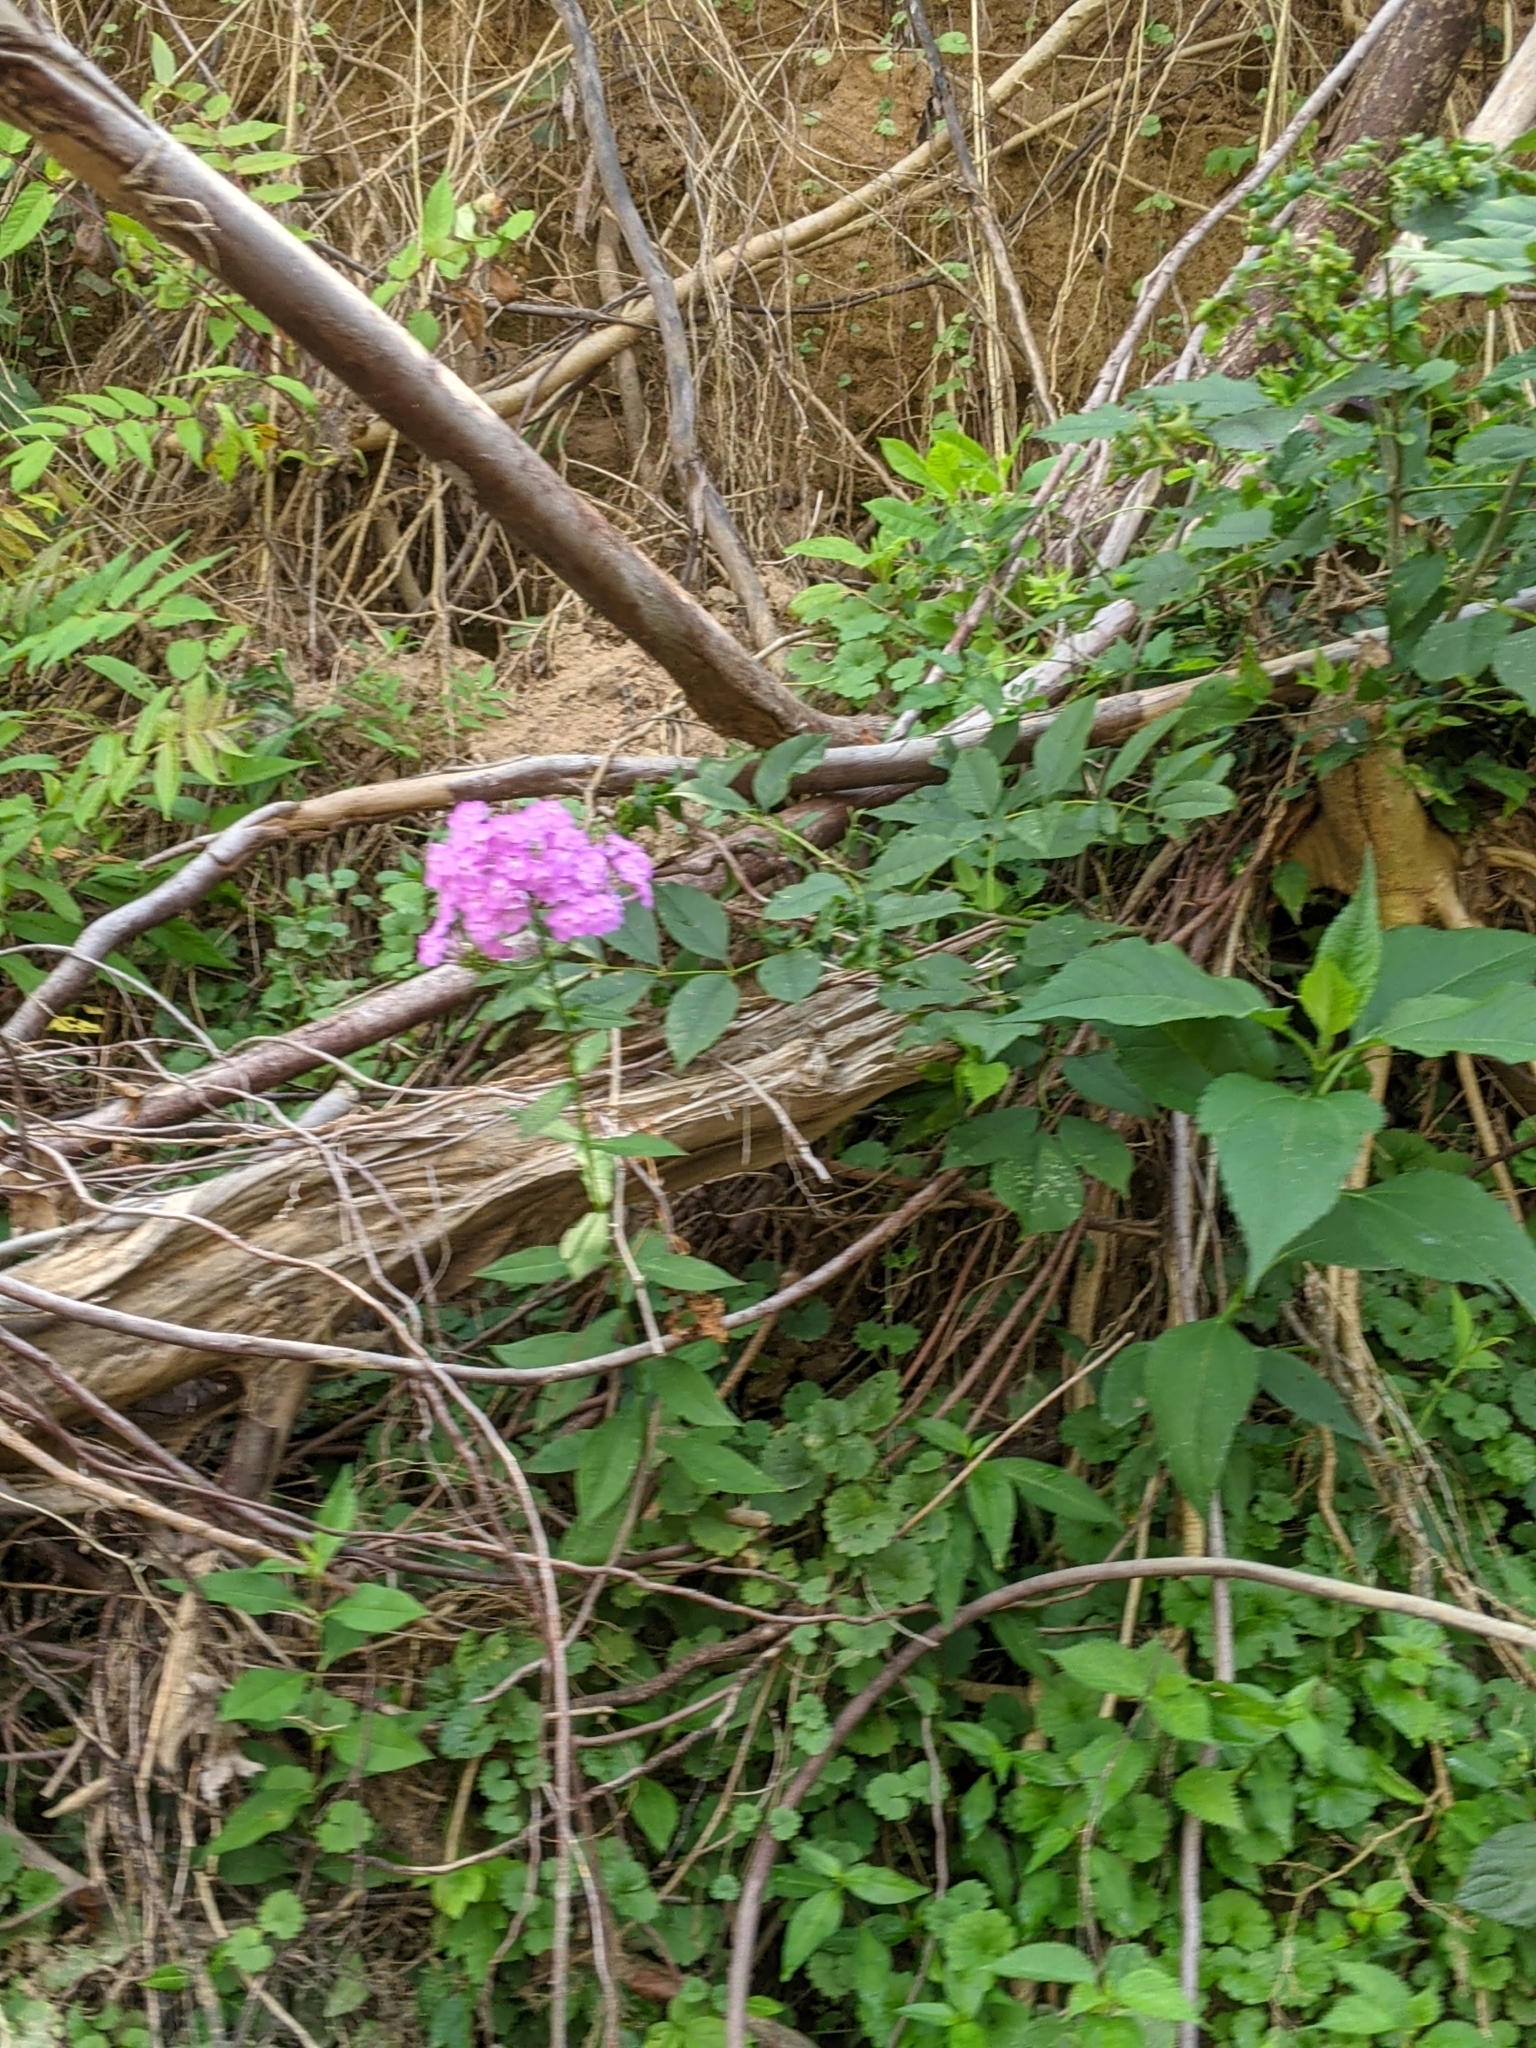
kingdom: Plantae
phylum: Tracheophyta
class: Magnoliopsida
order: Ericales
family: Polemoniaceae
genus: Phlox
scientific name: Phlox paniculata
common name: Fall phlox
